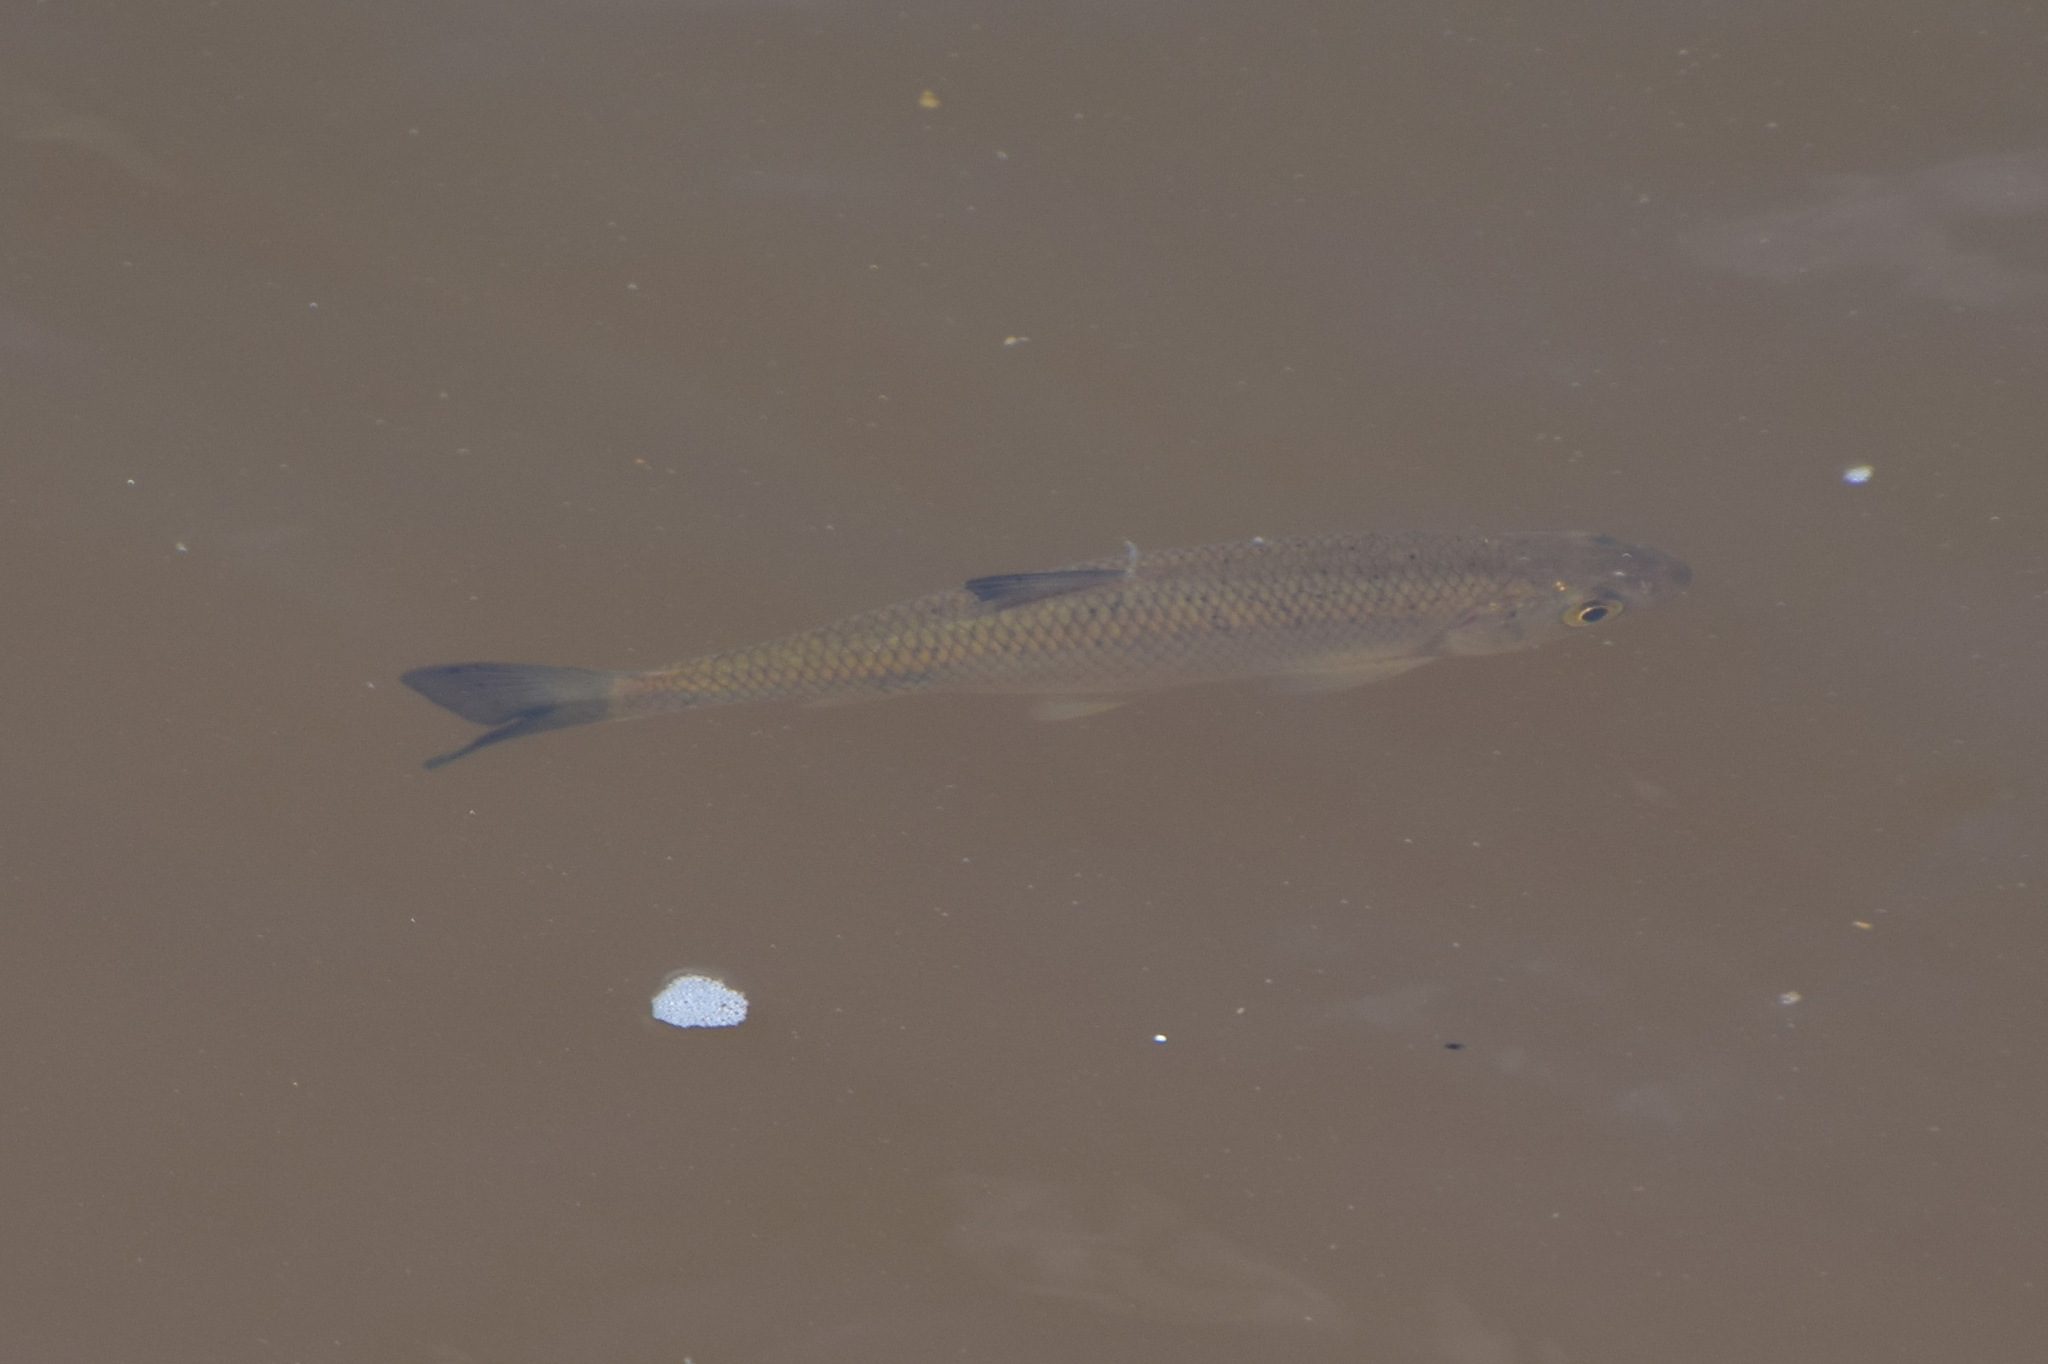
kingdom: Animalia
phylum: Chordata
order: Cypriniformes
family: Cyprinidae
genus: Squalius
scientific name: Squalius cephalus
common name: Chub
